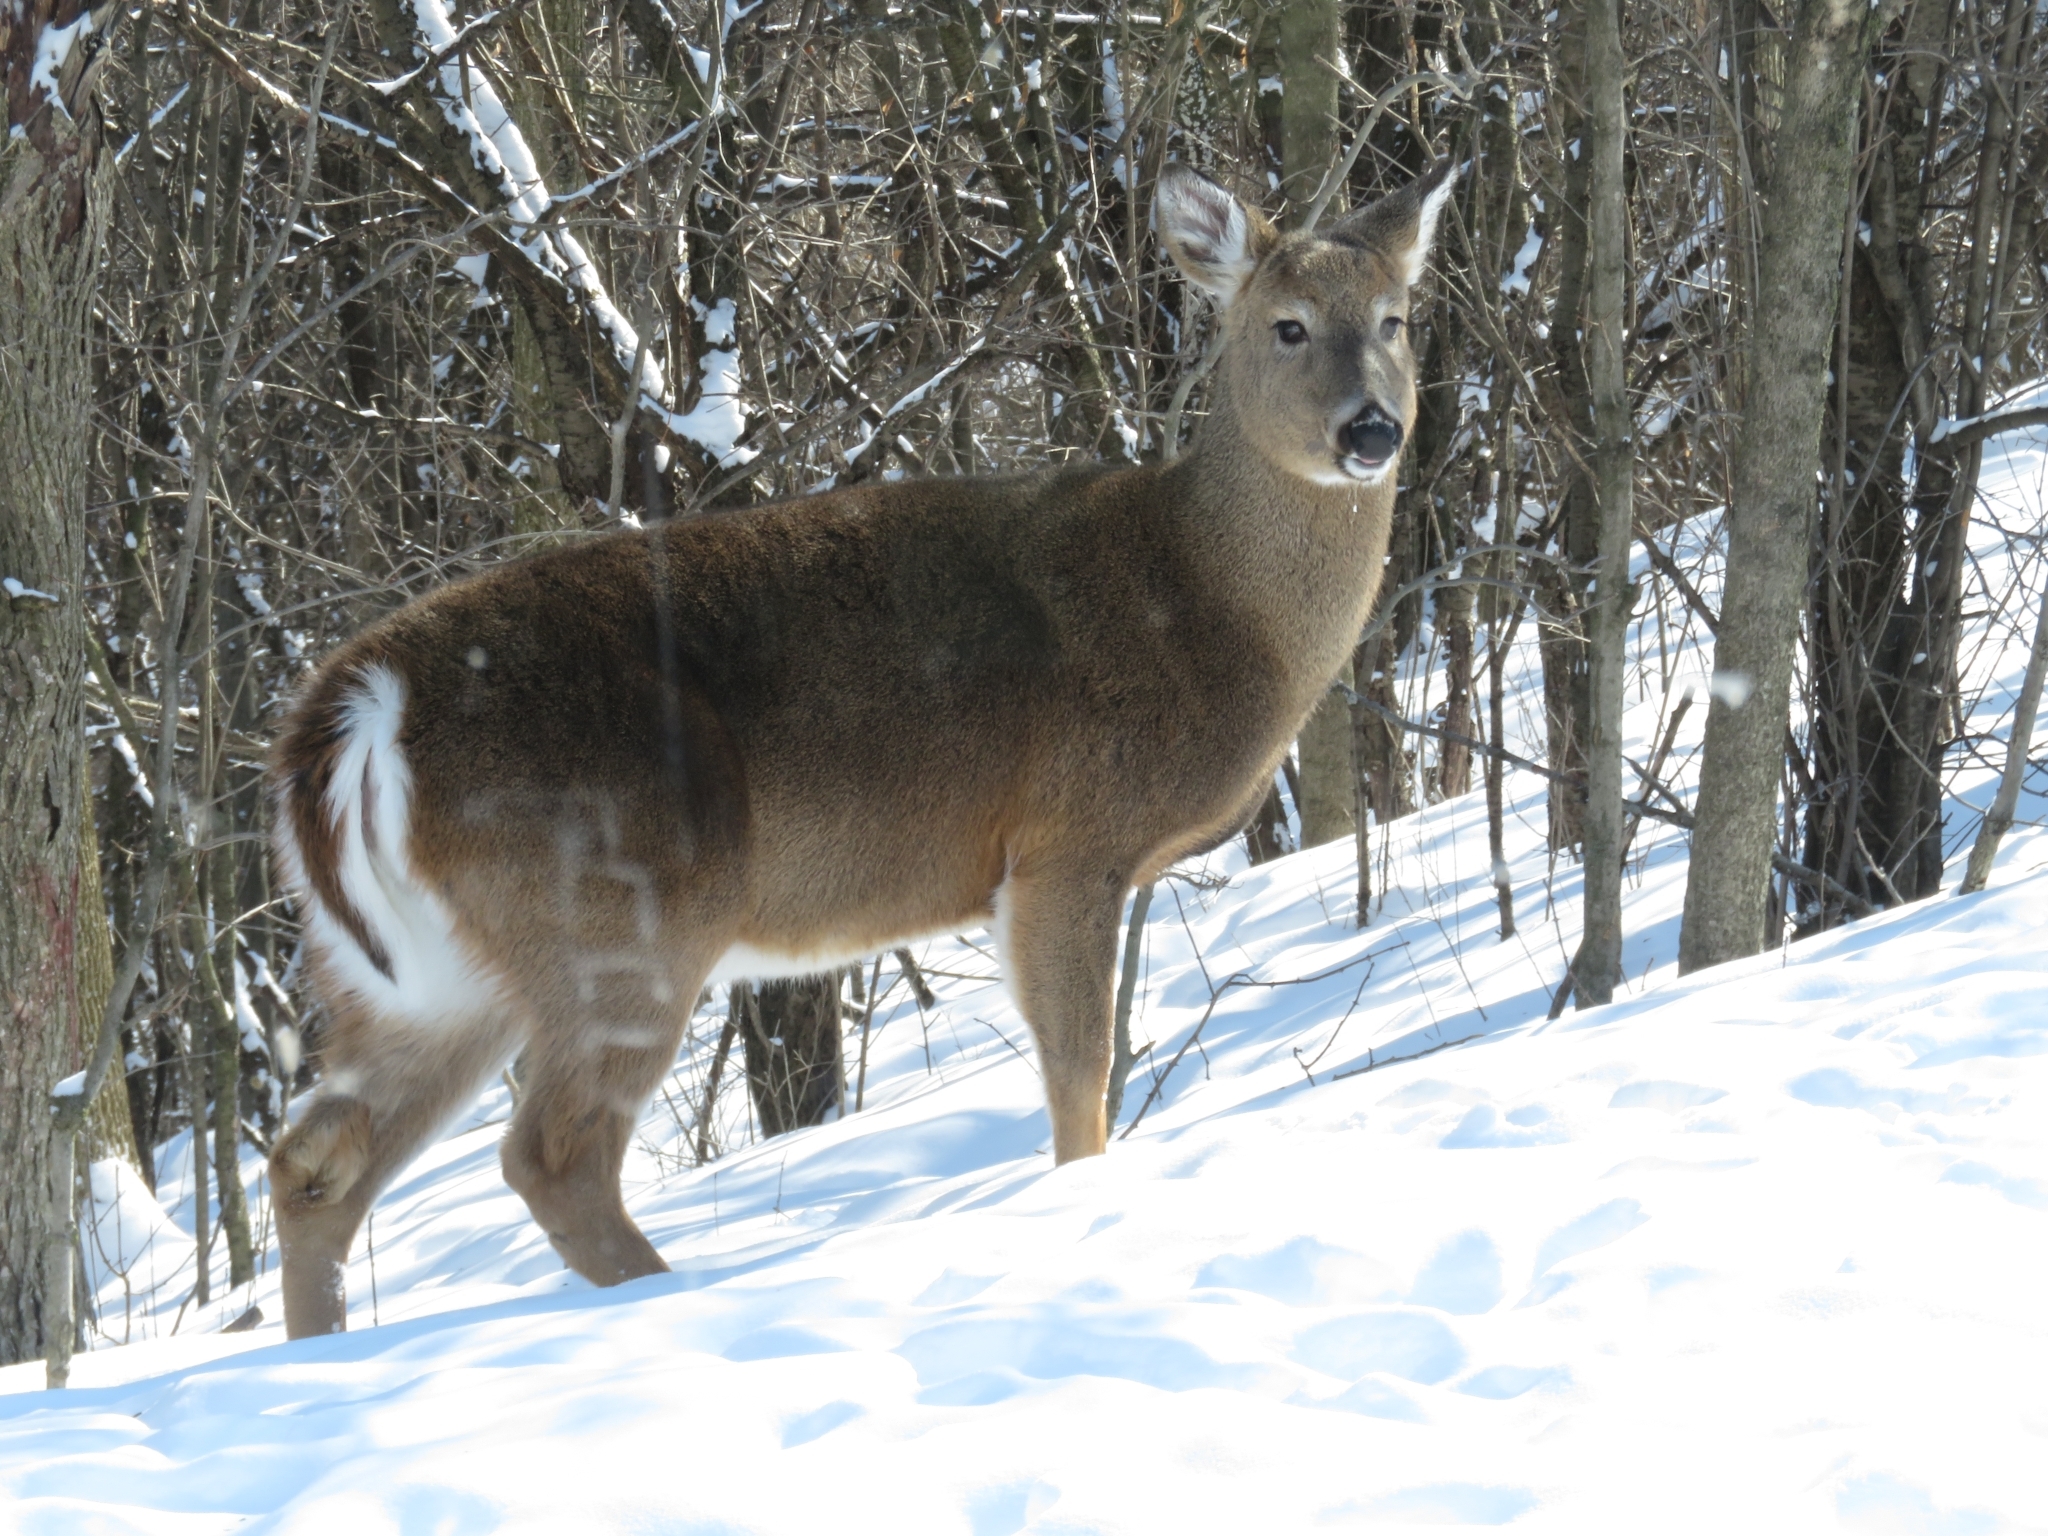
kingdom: Animalia
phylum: Chordata
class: Mammalia
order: Artiodactyla
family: Cervidae
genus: Odocoileus
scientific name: Odocoileus virginianus
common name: White-tailed deer
